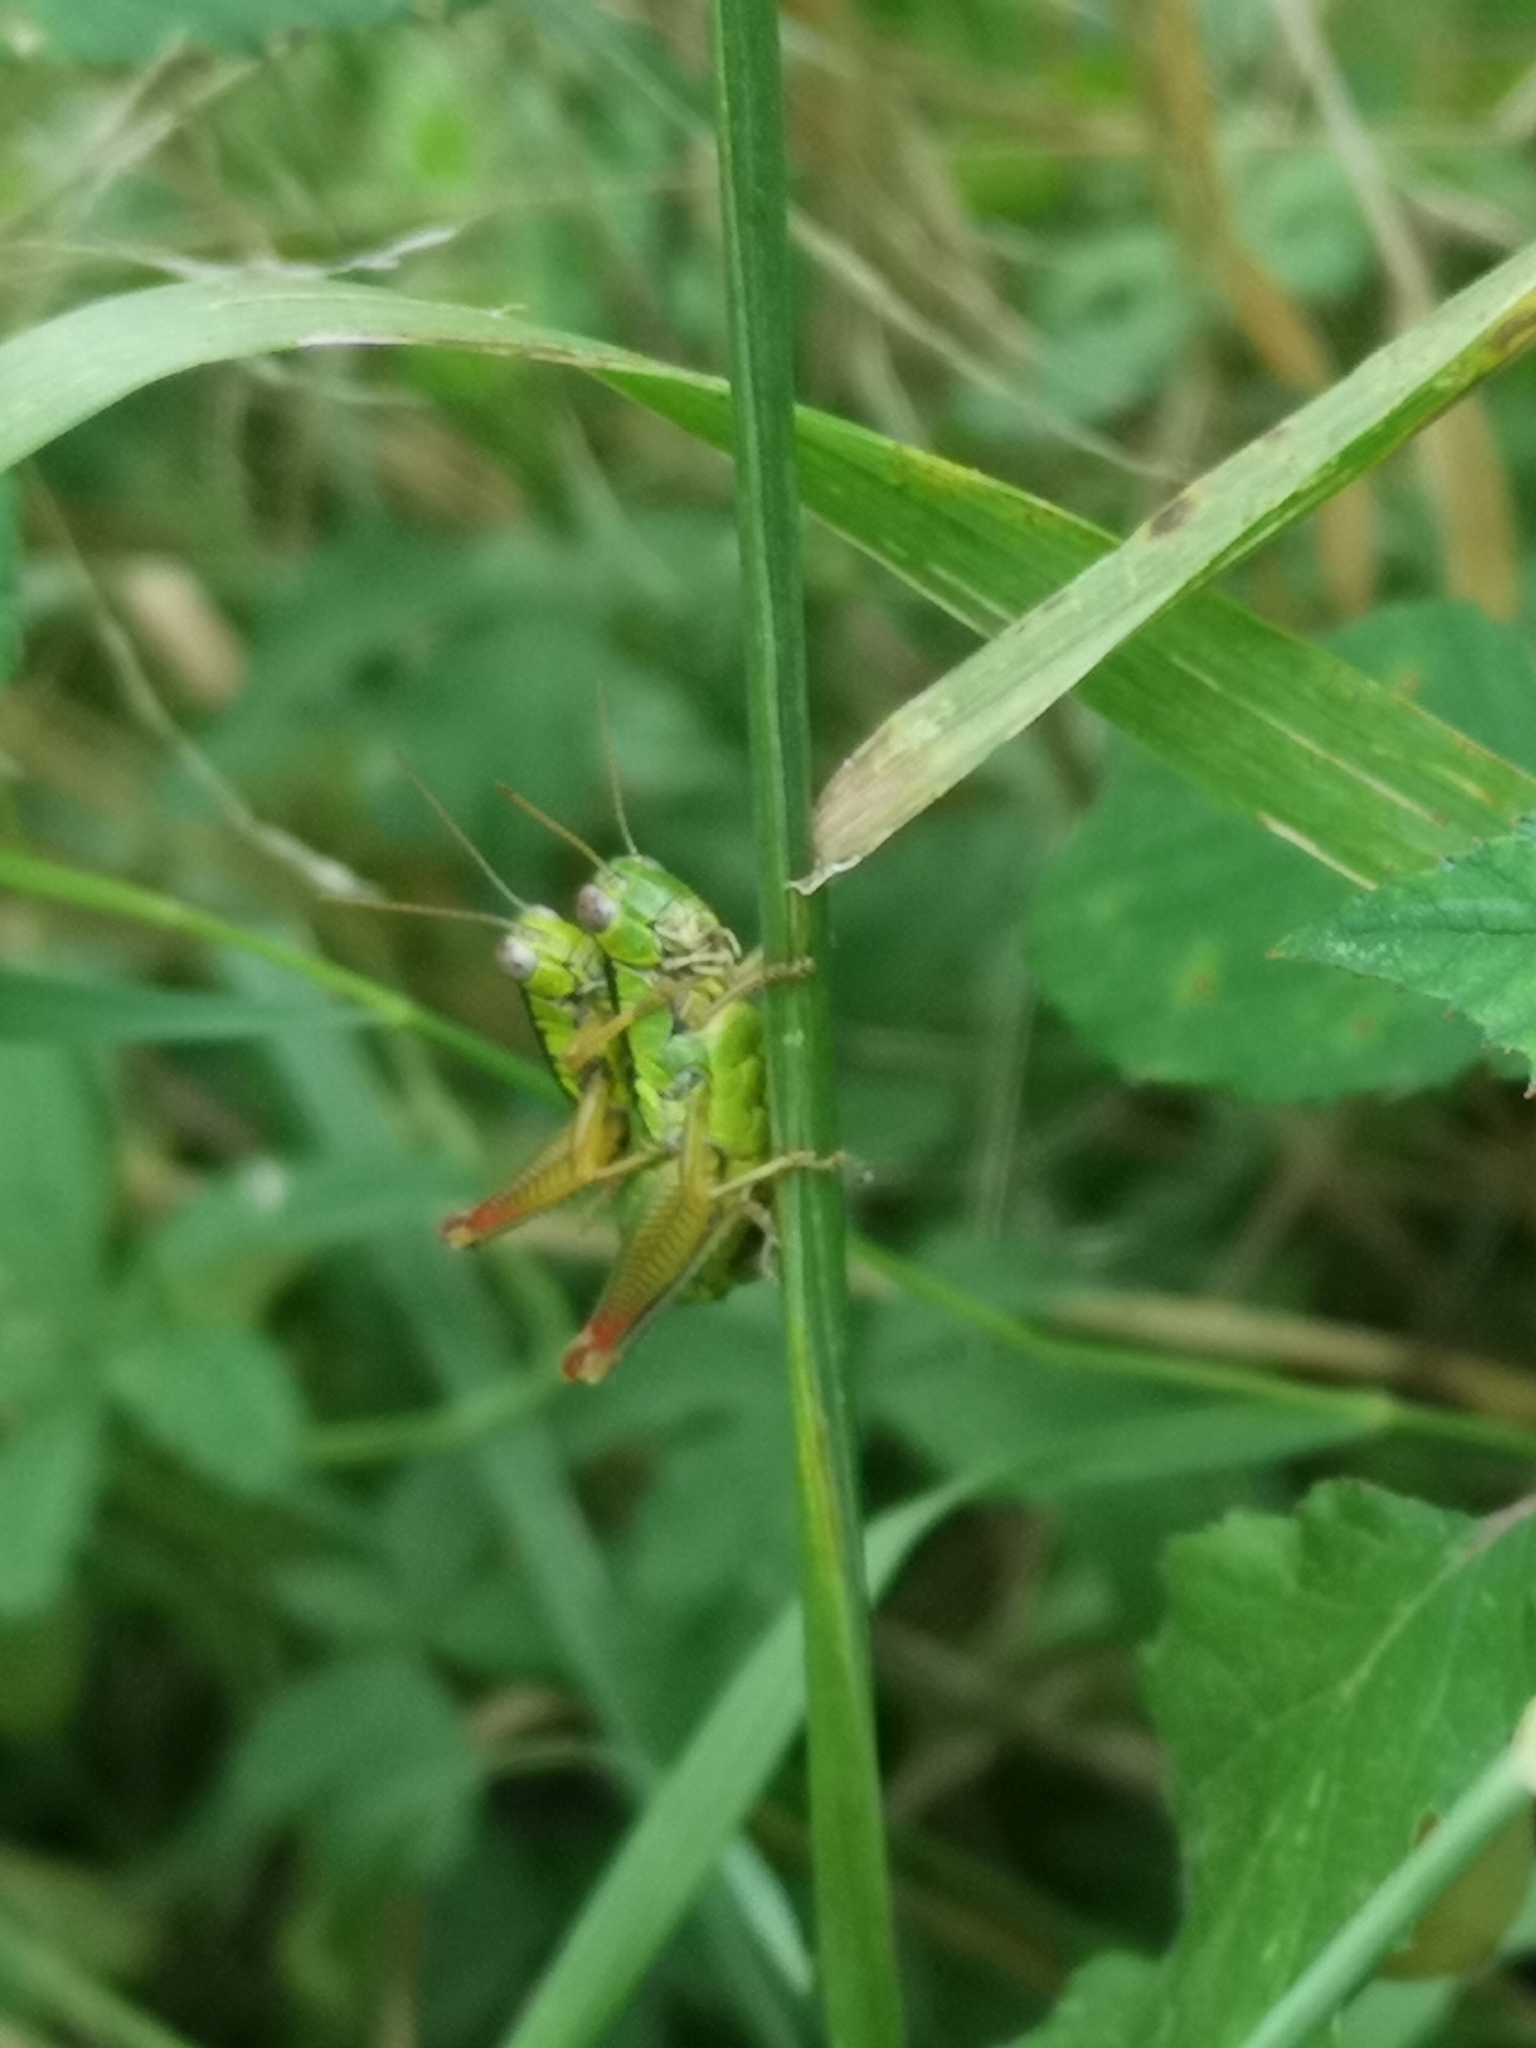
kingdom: Animalia
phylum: Arthropoda
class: Insecta
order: Orthoptera
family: Acrididae
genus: Micropodisma
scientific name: Micropodisma salamandra
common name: Foothill mountain grasshopper
